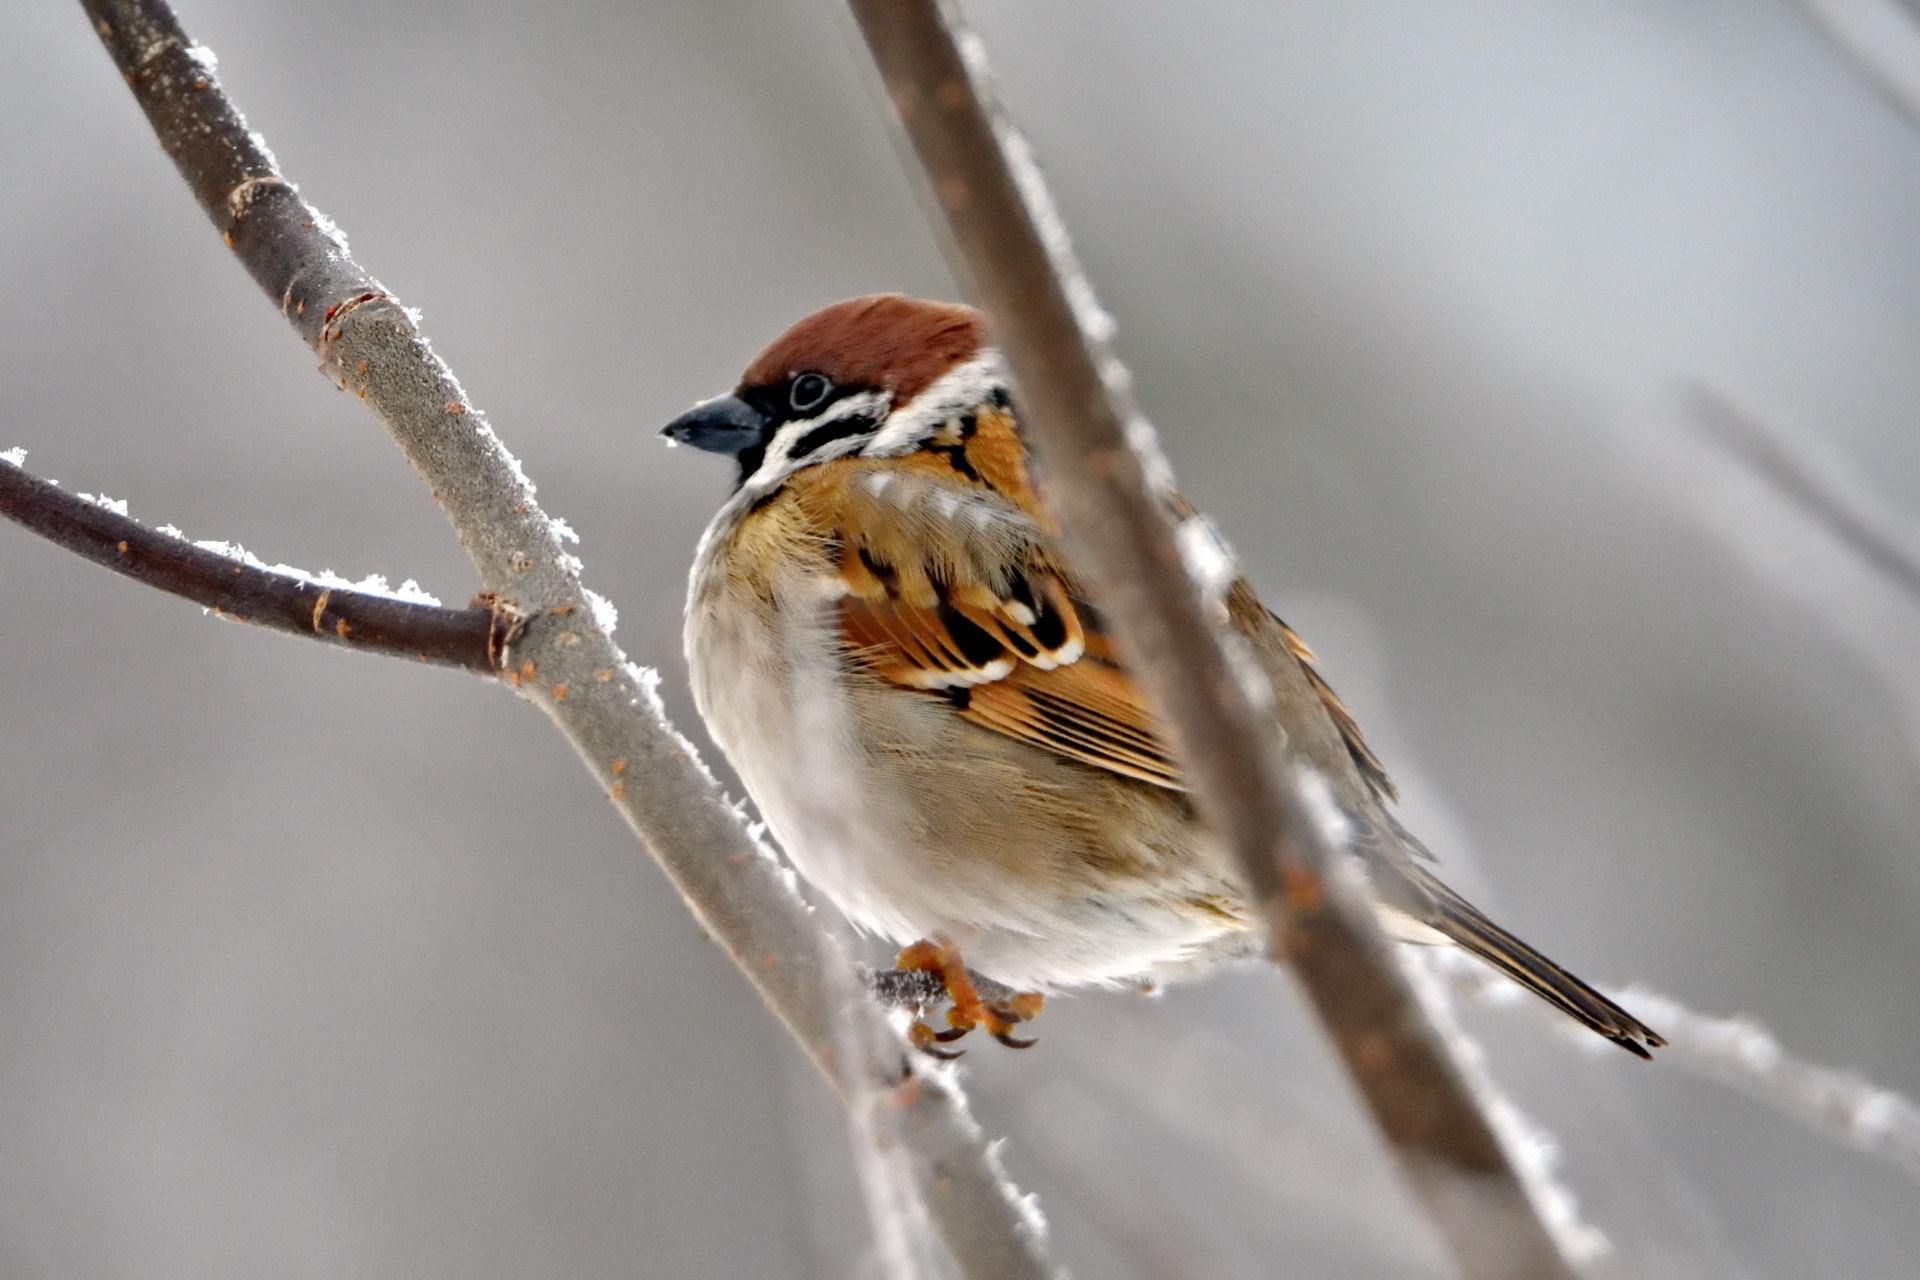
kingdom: Animalia
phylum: Chordata
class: Aves
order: Passeriformes
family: Passeridae
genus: Passer
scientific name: Passer montanus
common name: Eurasian tree sparrow
